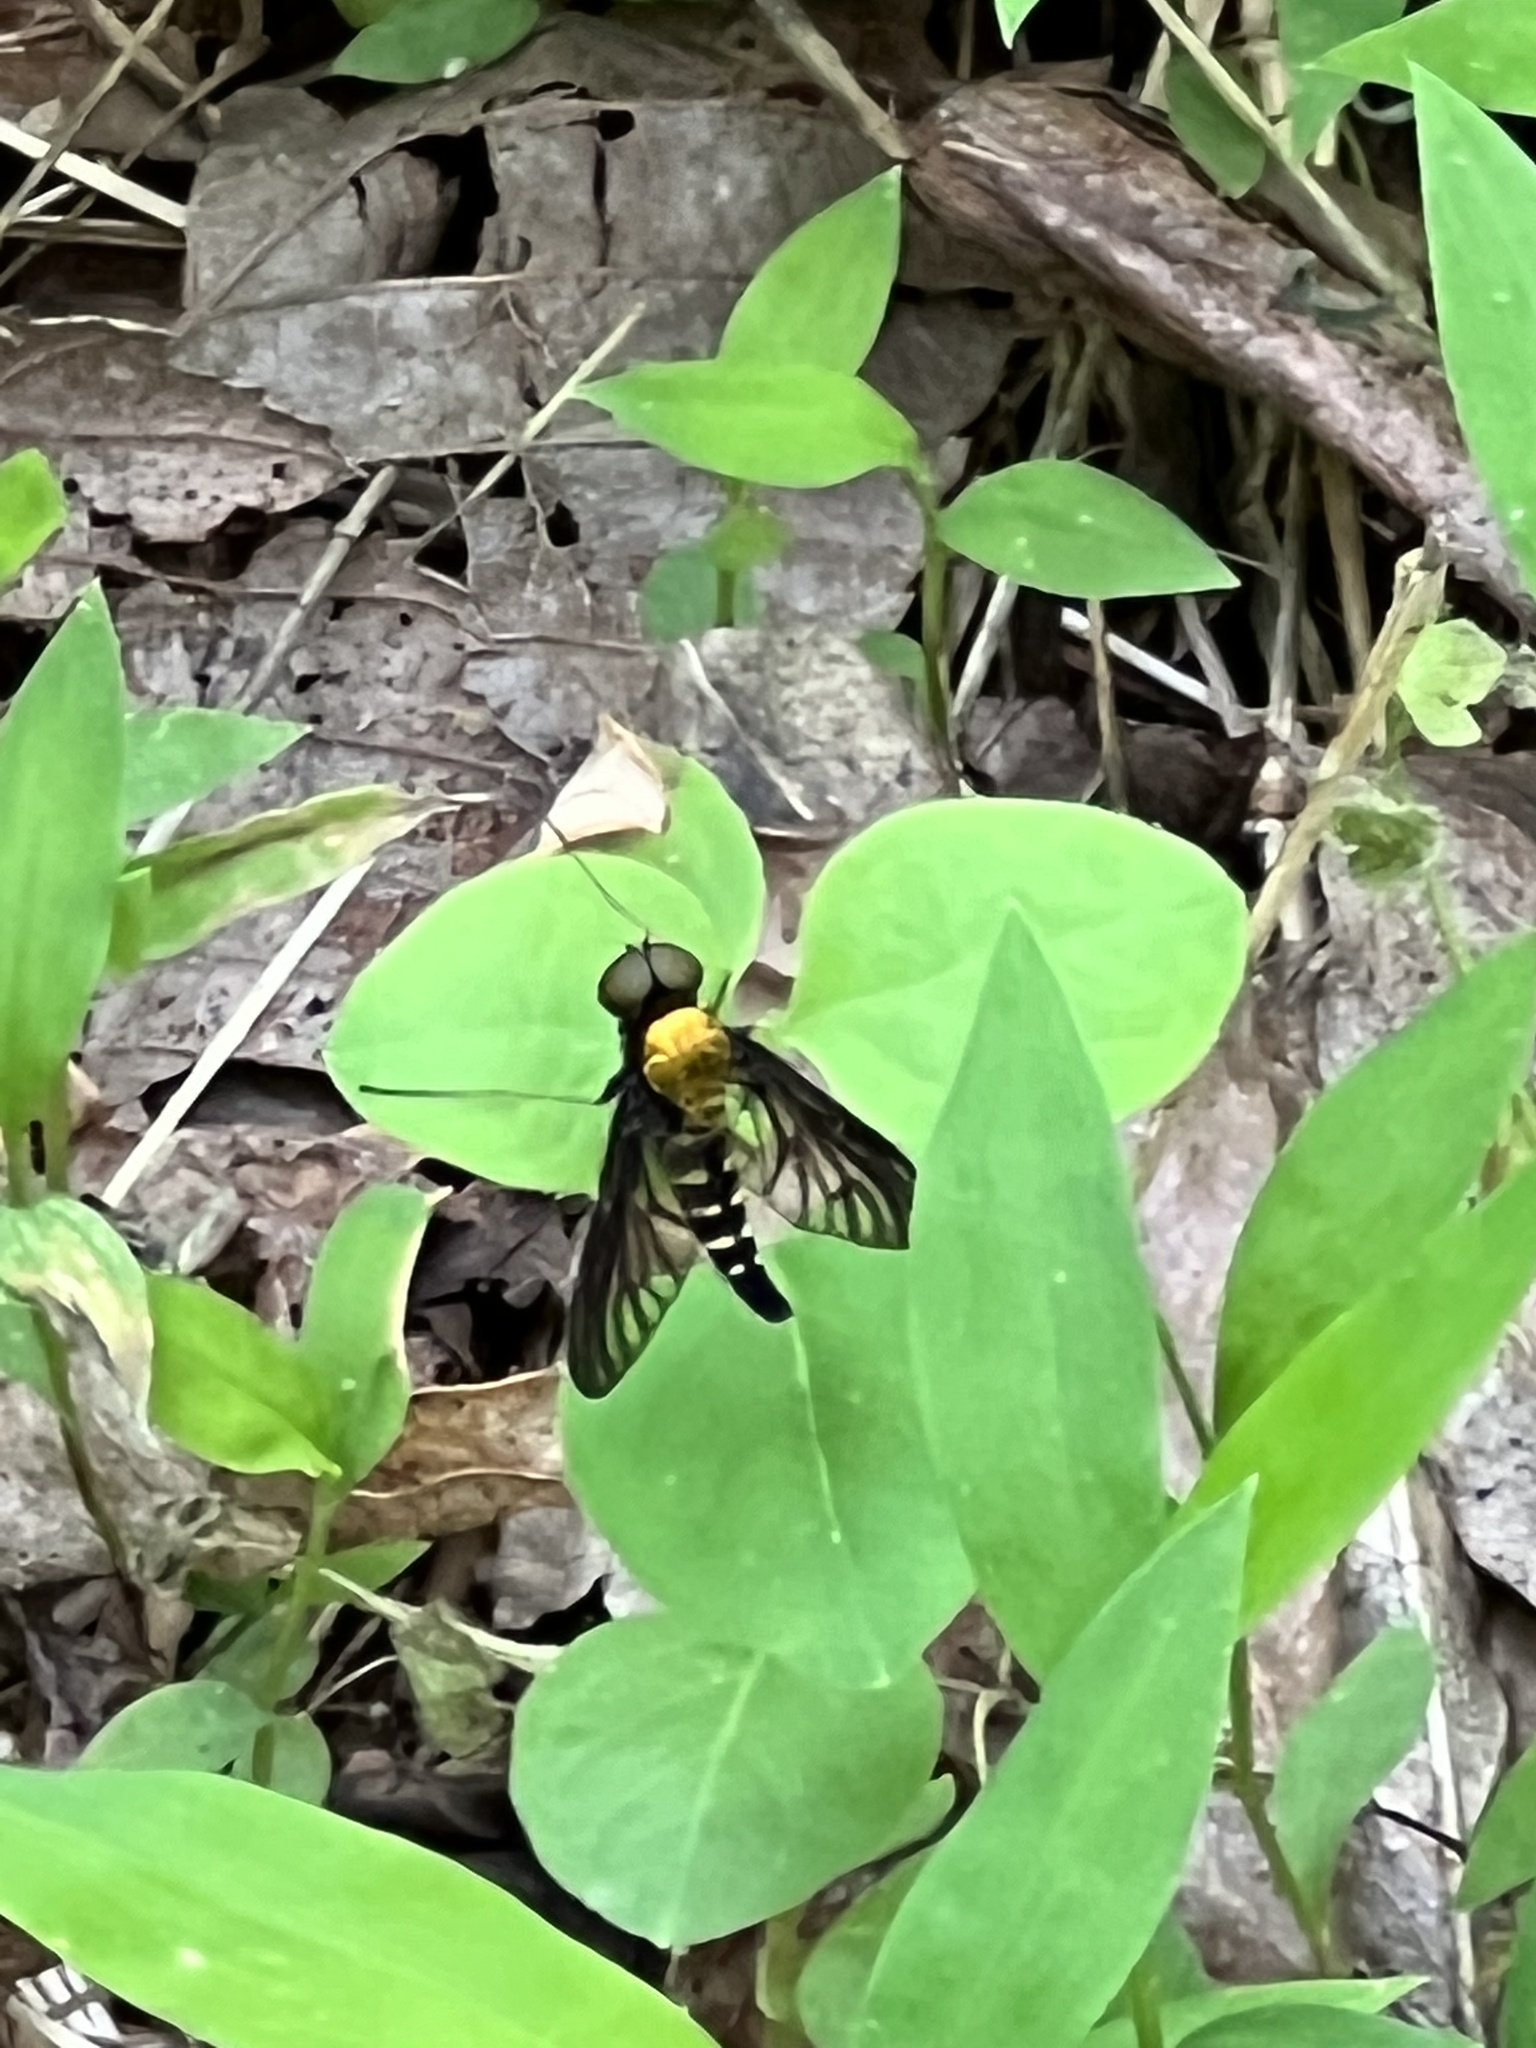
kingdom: Animalia
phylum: Arthropoda
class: Insecta
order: Diptera
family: Rhagionidae
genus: Chrysopilus
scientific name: Chrysopilus thoracicus
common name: Golden-backed snipe fly
